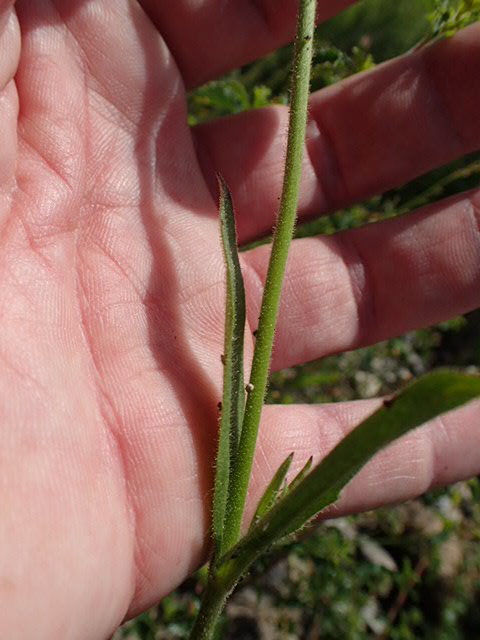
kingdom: Plantae
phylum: Tracheophyta
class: Magnoliopsida
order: Caryophyllales
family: Caryophyllaceae
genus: Silene
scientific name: Silene coniflora
